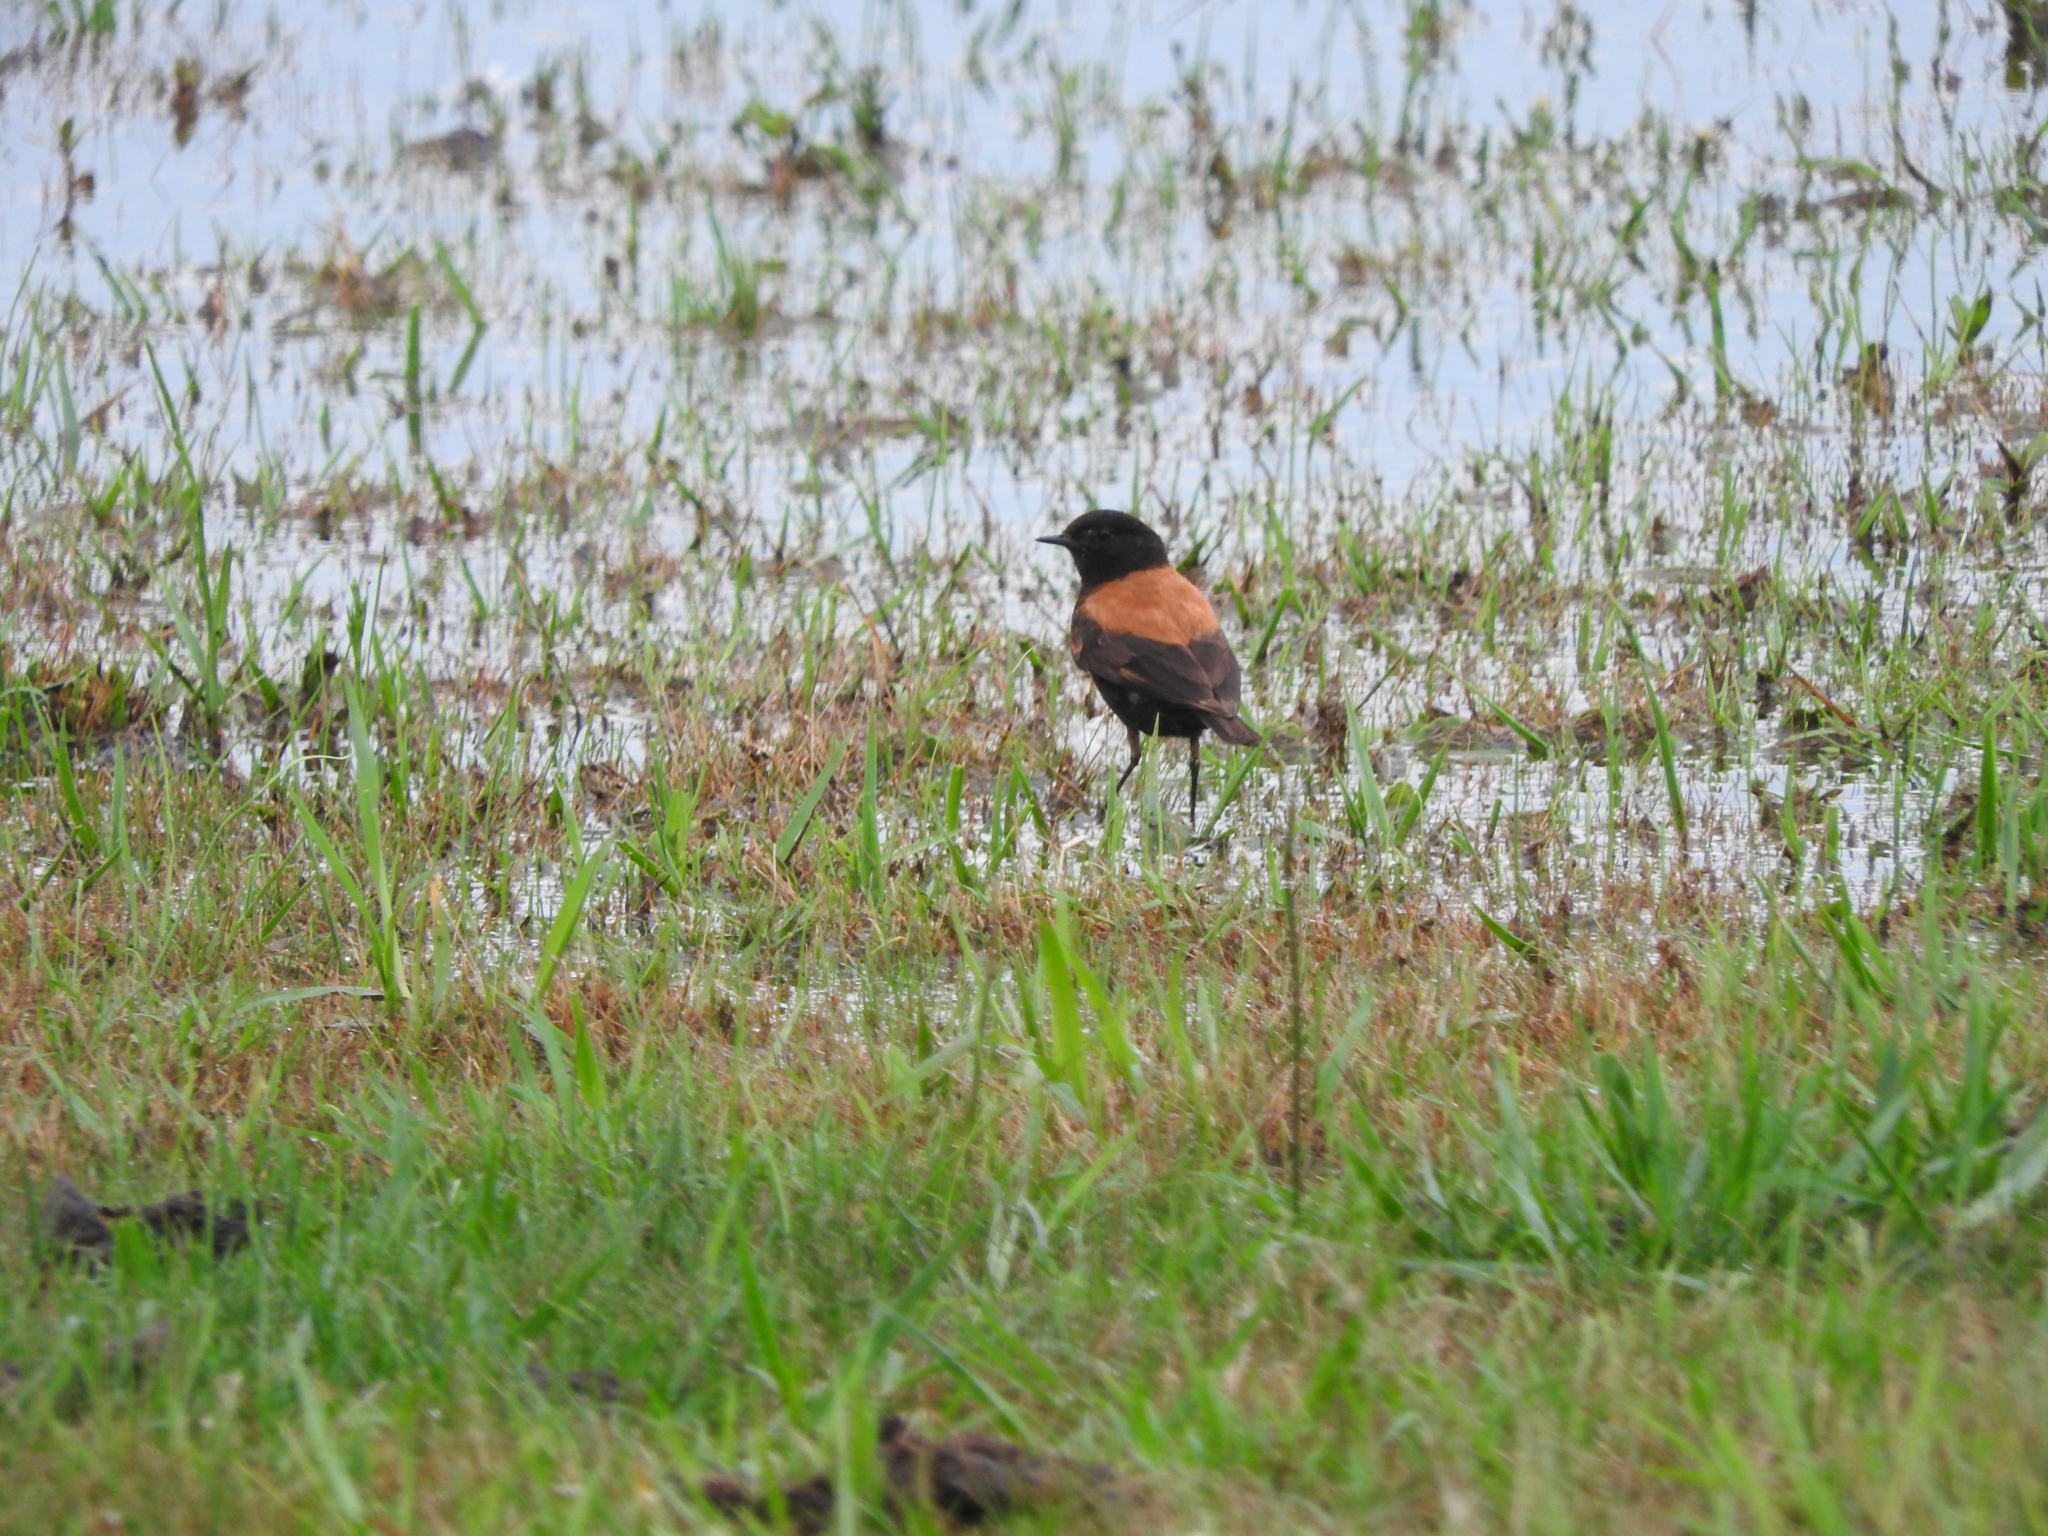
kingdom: Animalia
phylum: Chordata
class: Aves
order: Passeriformes
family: Tyrannidae
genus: Lessonia
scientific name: Lessonia rufa
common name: Austral negrito
